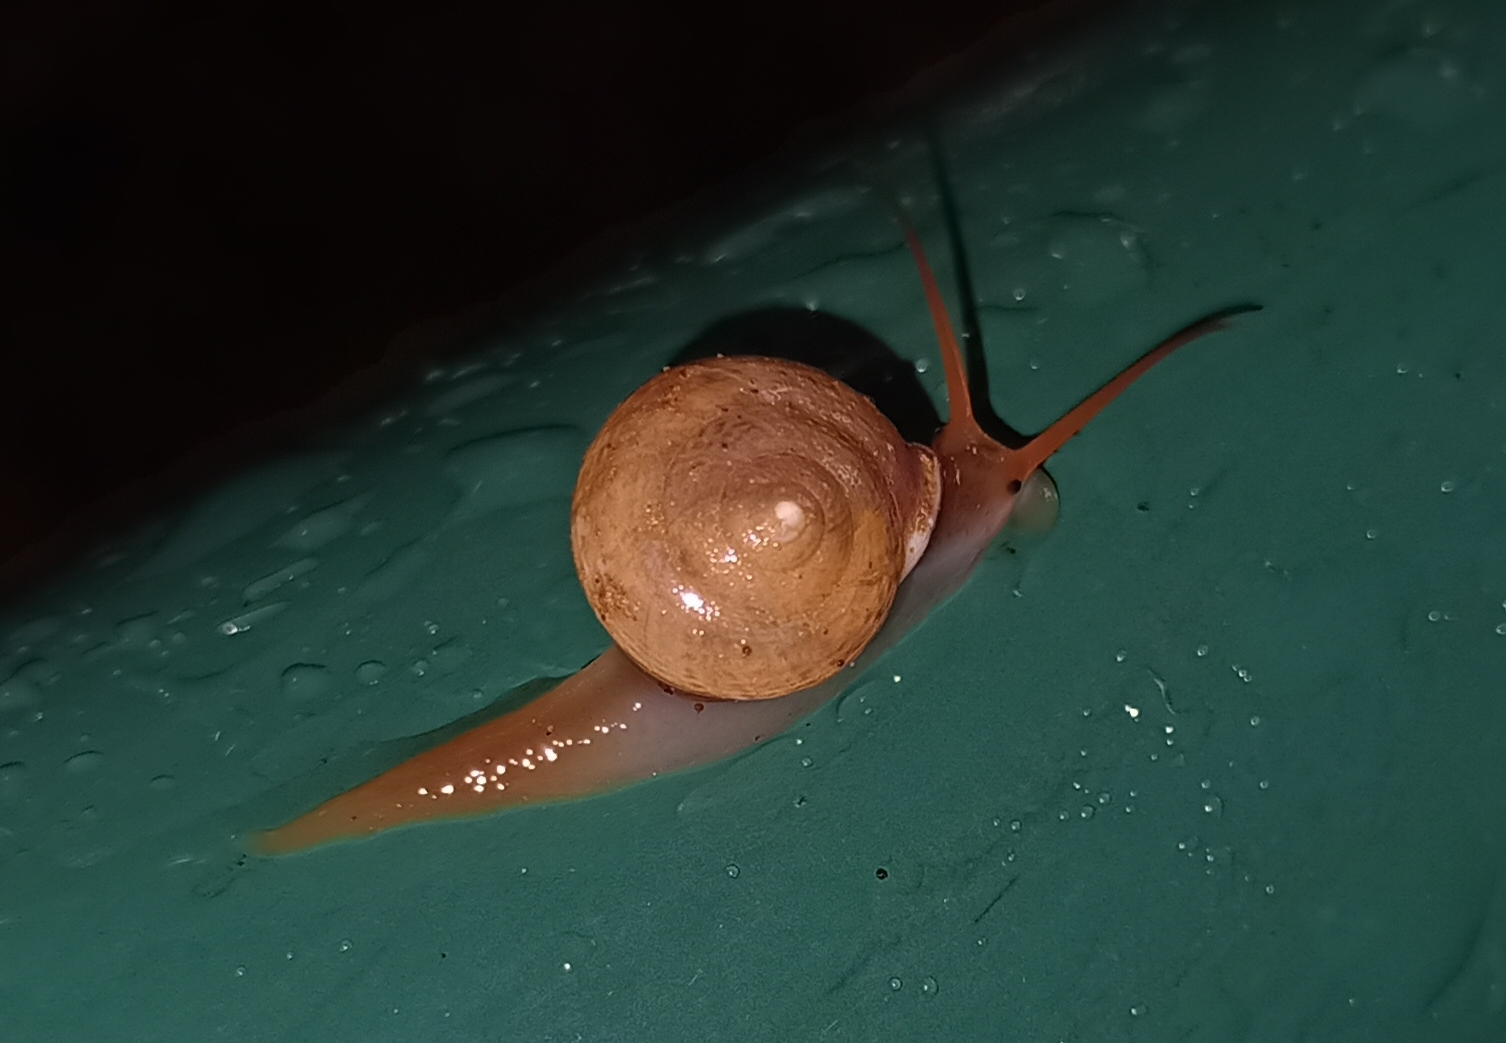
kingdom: Animalia
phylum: Mollusca
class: Gastropoda
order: Cycloneritida
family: Helicinidae
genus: Helicina
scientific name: Helicina boettgeri
